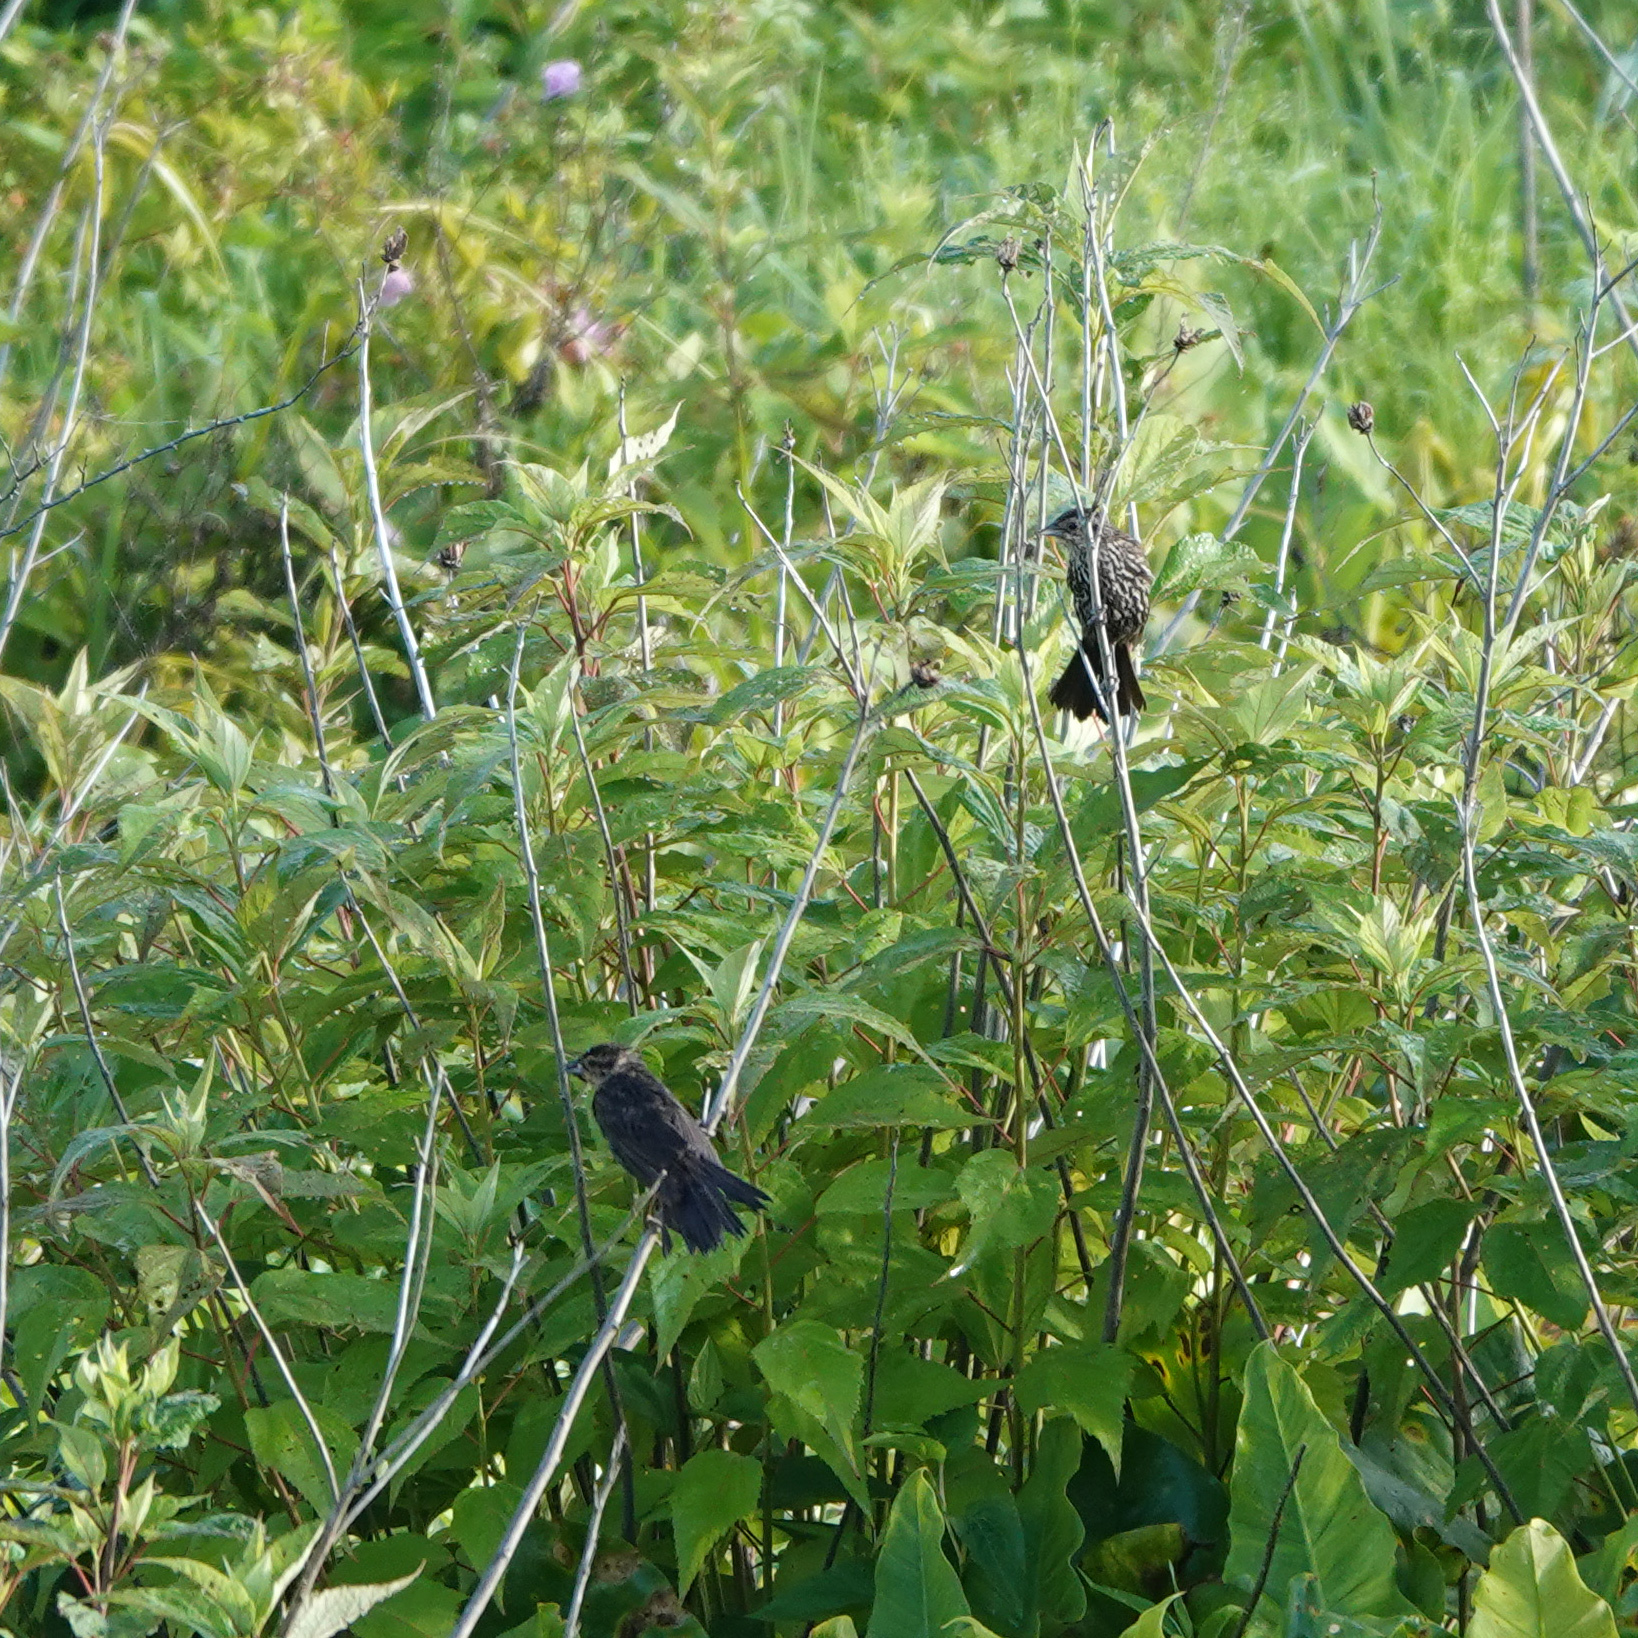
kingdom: Animalia
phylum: Chordata
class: Aves
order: Passeriformes
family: Icteridae
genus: Agelaius
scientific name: Agelaius phoeniceus
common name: Red-winged blackbird
